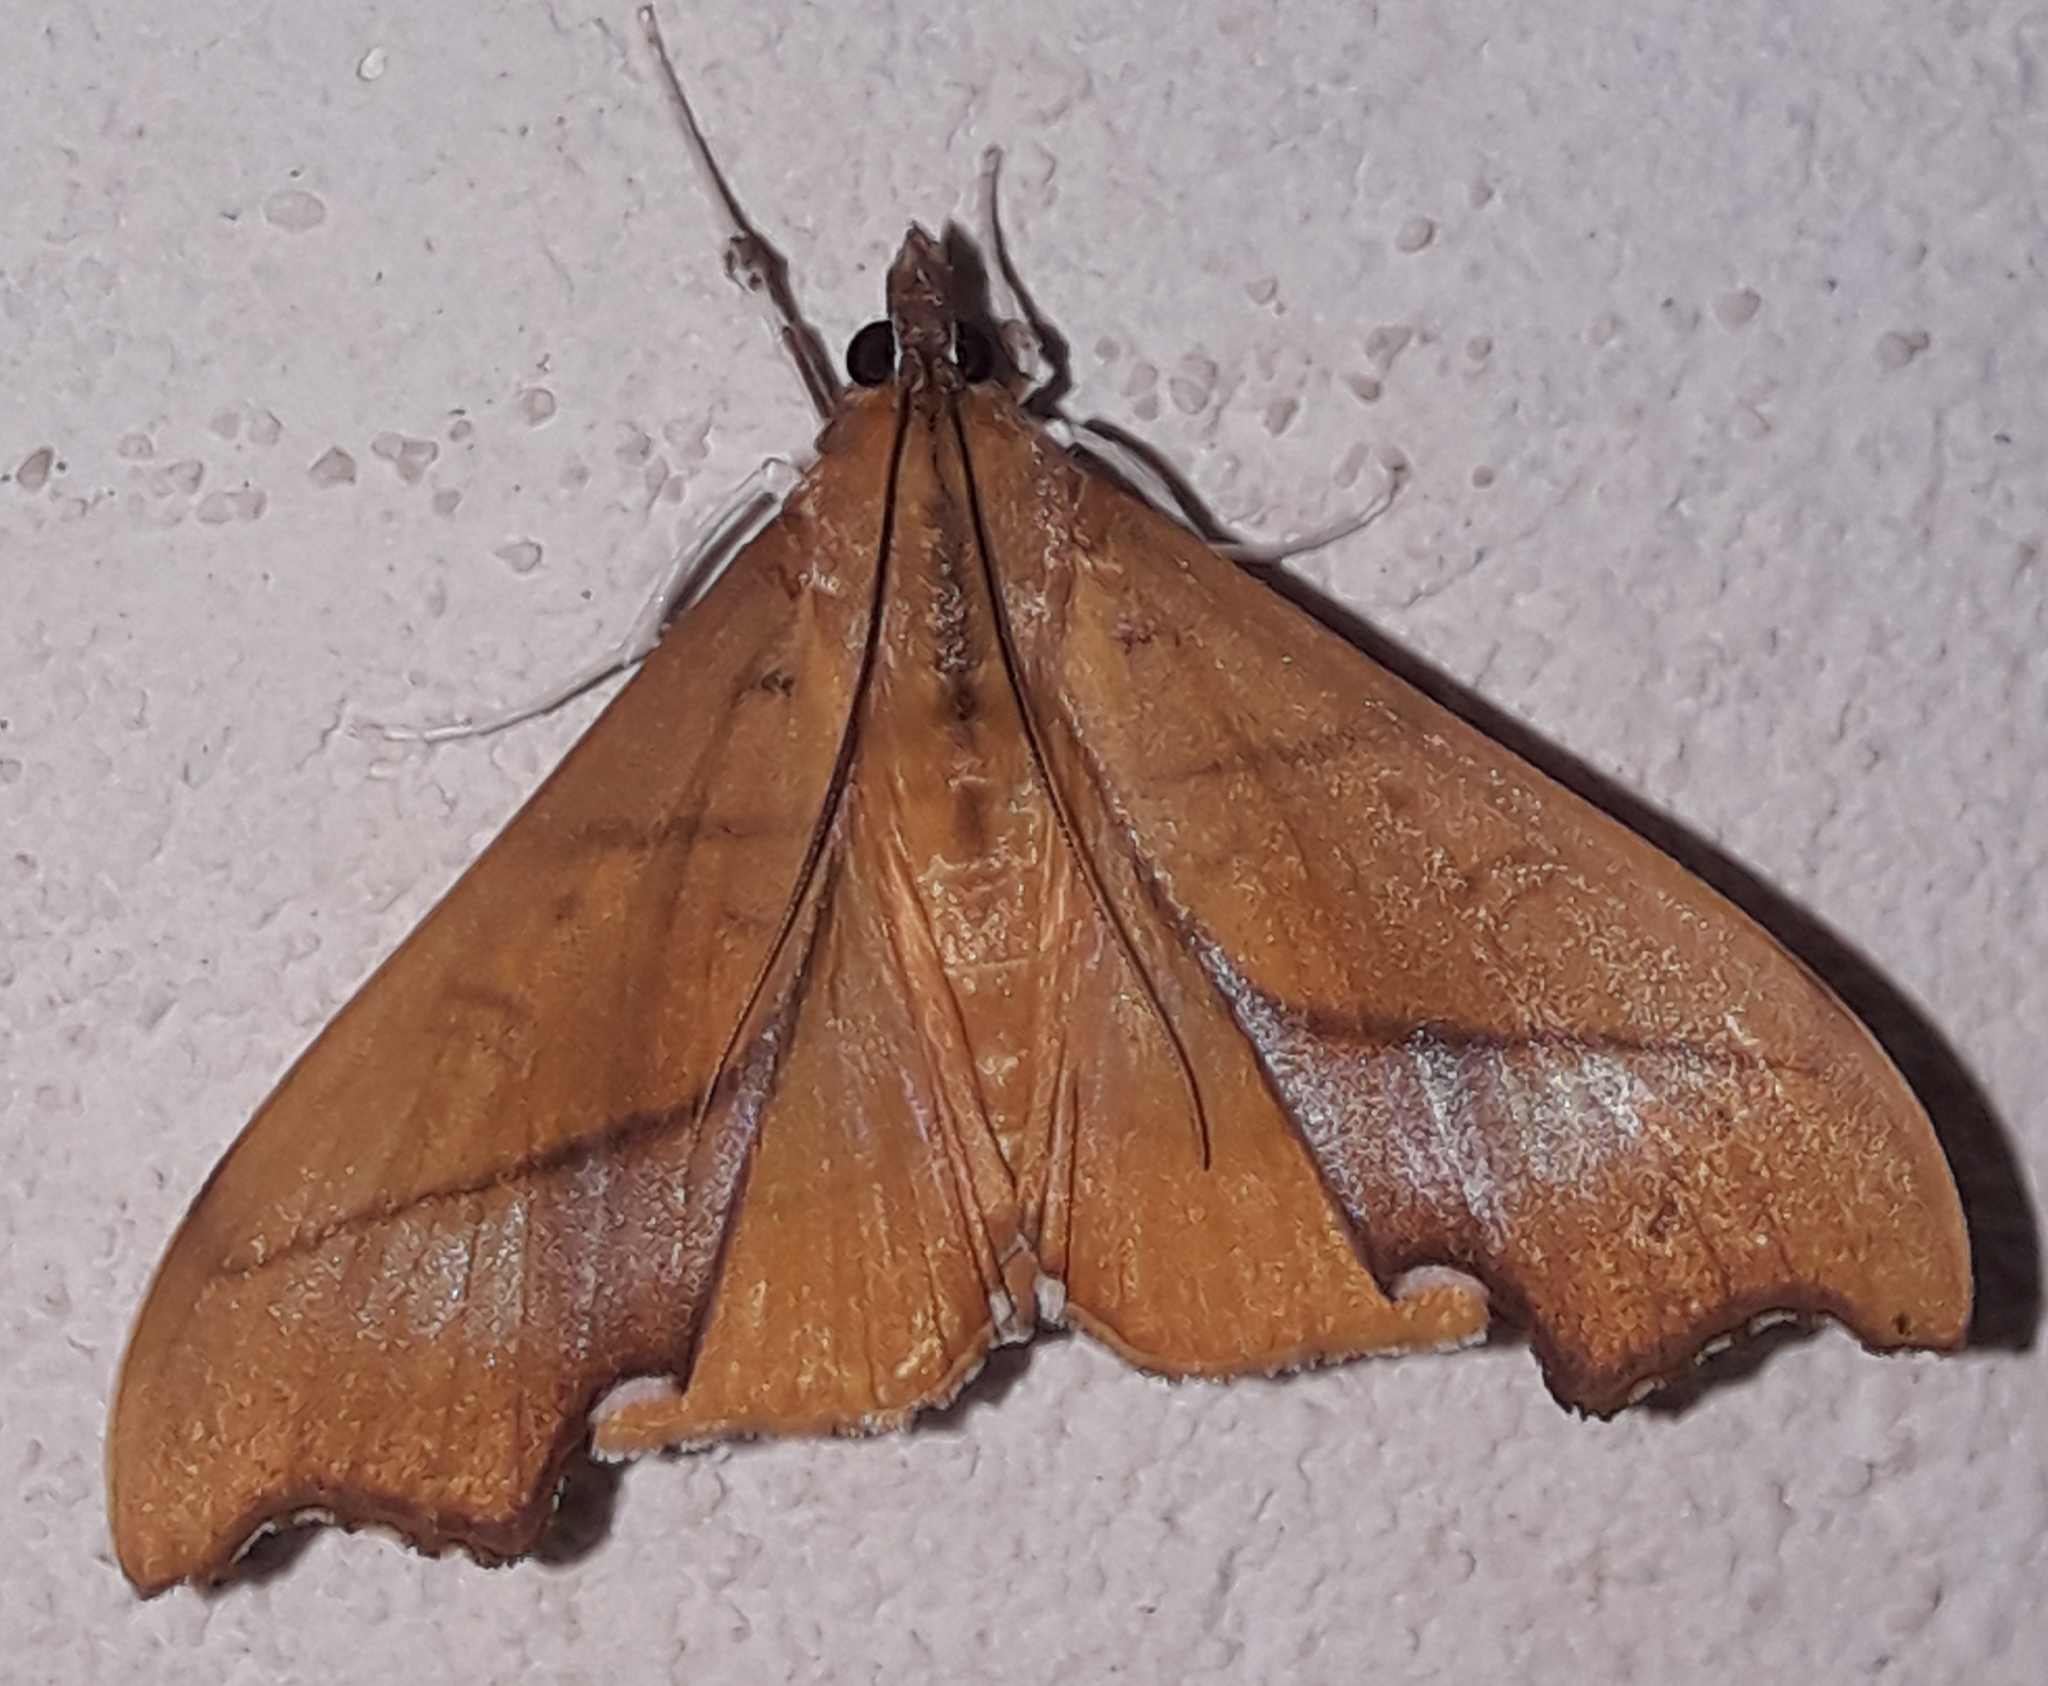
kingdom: Animalia
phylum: Arthropoda
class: Insecta
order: Lepidoptera
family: Crambidae
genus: Sparagmia
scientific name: Sparagmia gonoptera
